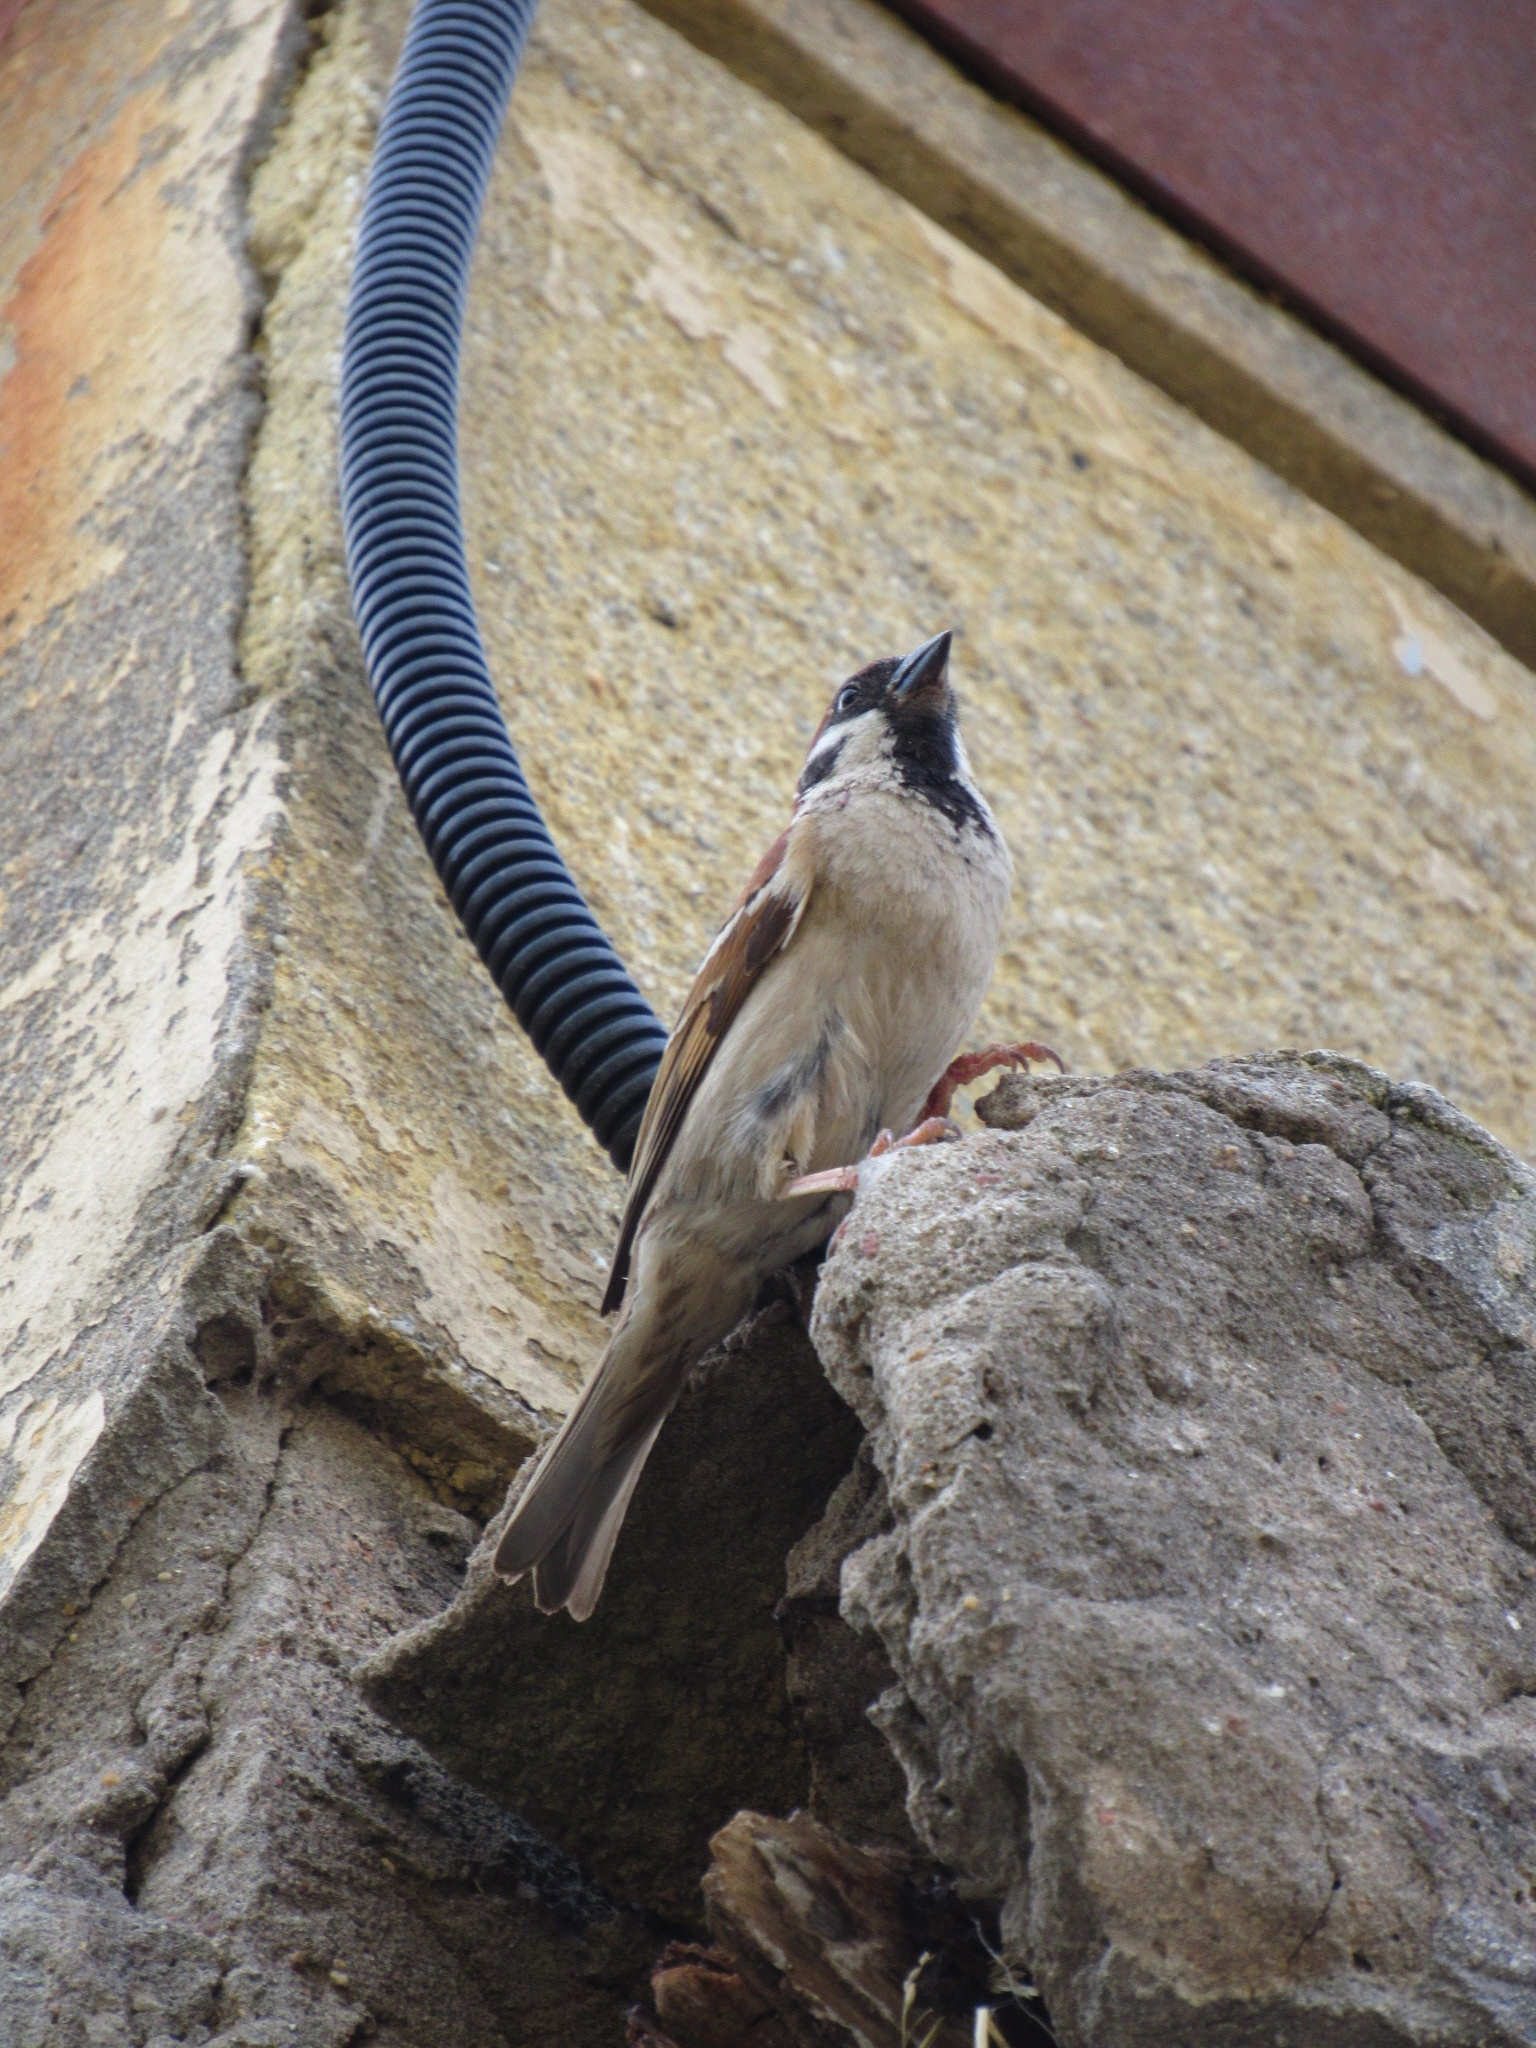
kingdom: Animalia
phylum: Chordata
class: Aves
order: Passeriformes
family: Passeridae
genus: Passer
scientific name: Passer montanus
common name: Eurasian tree sparrow
